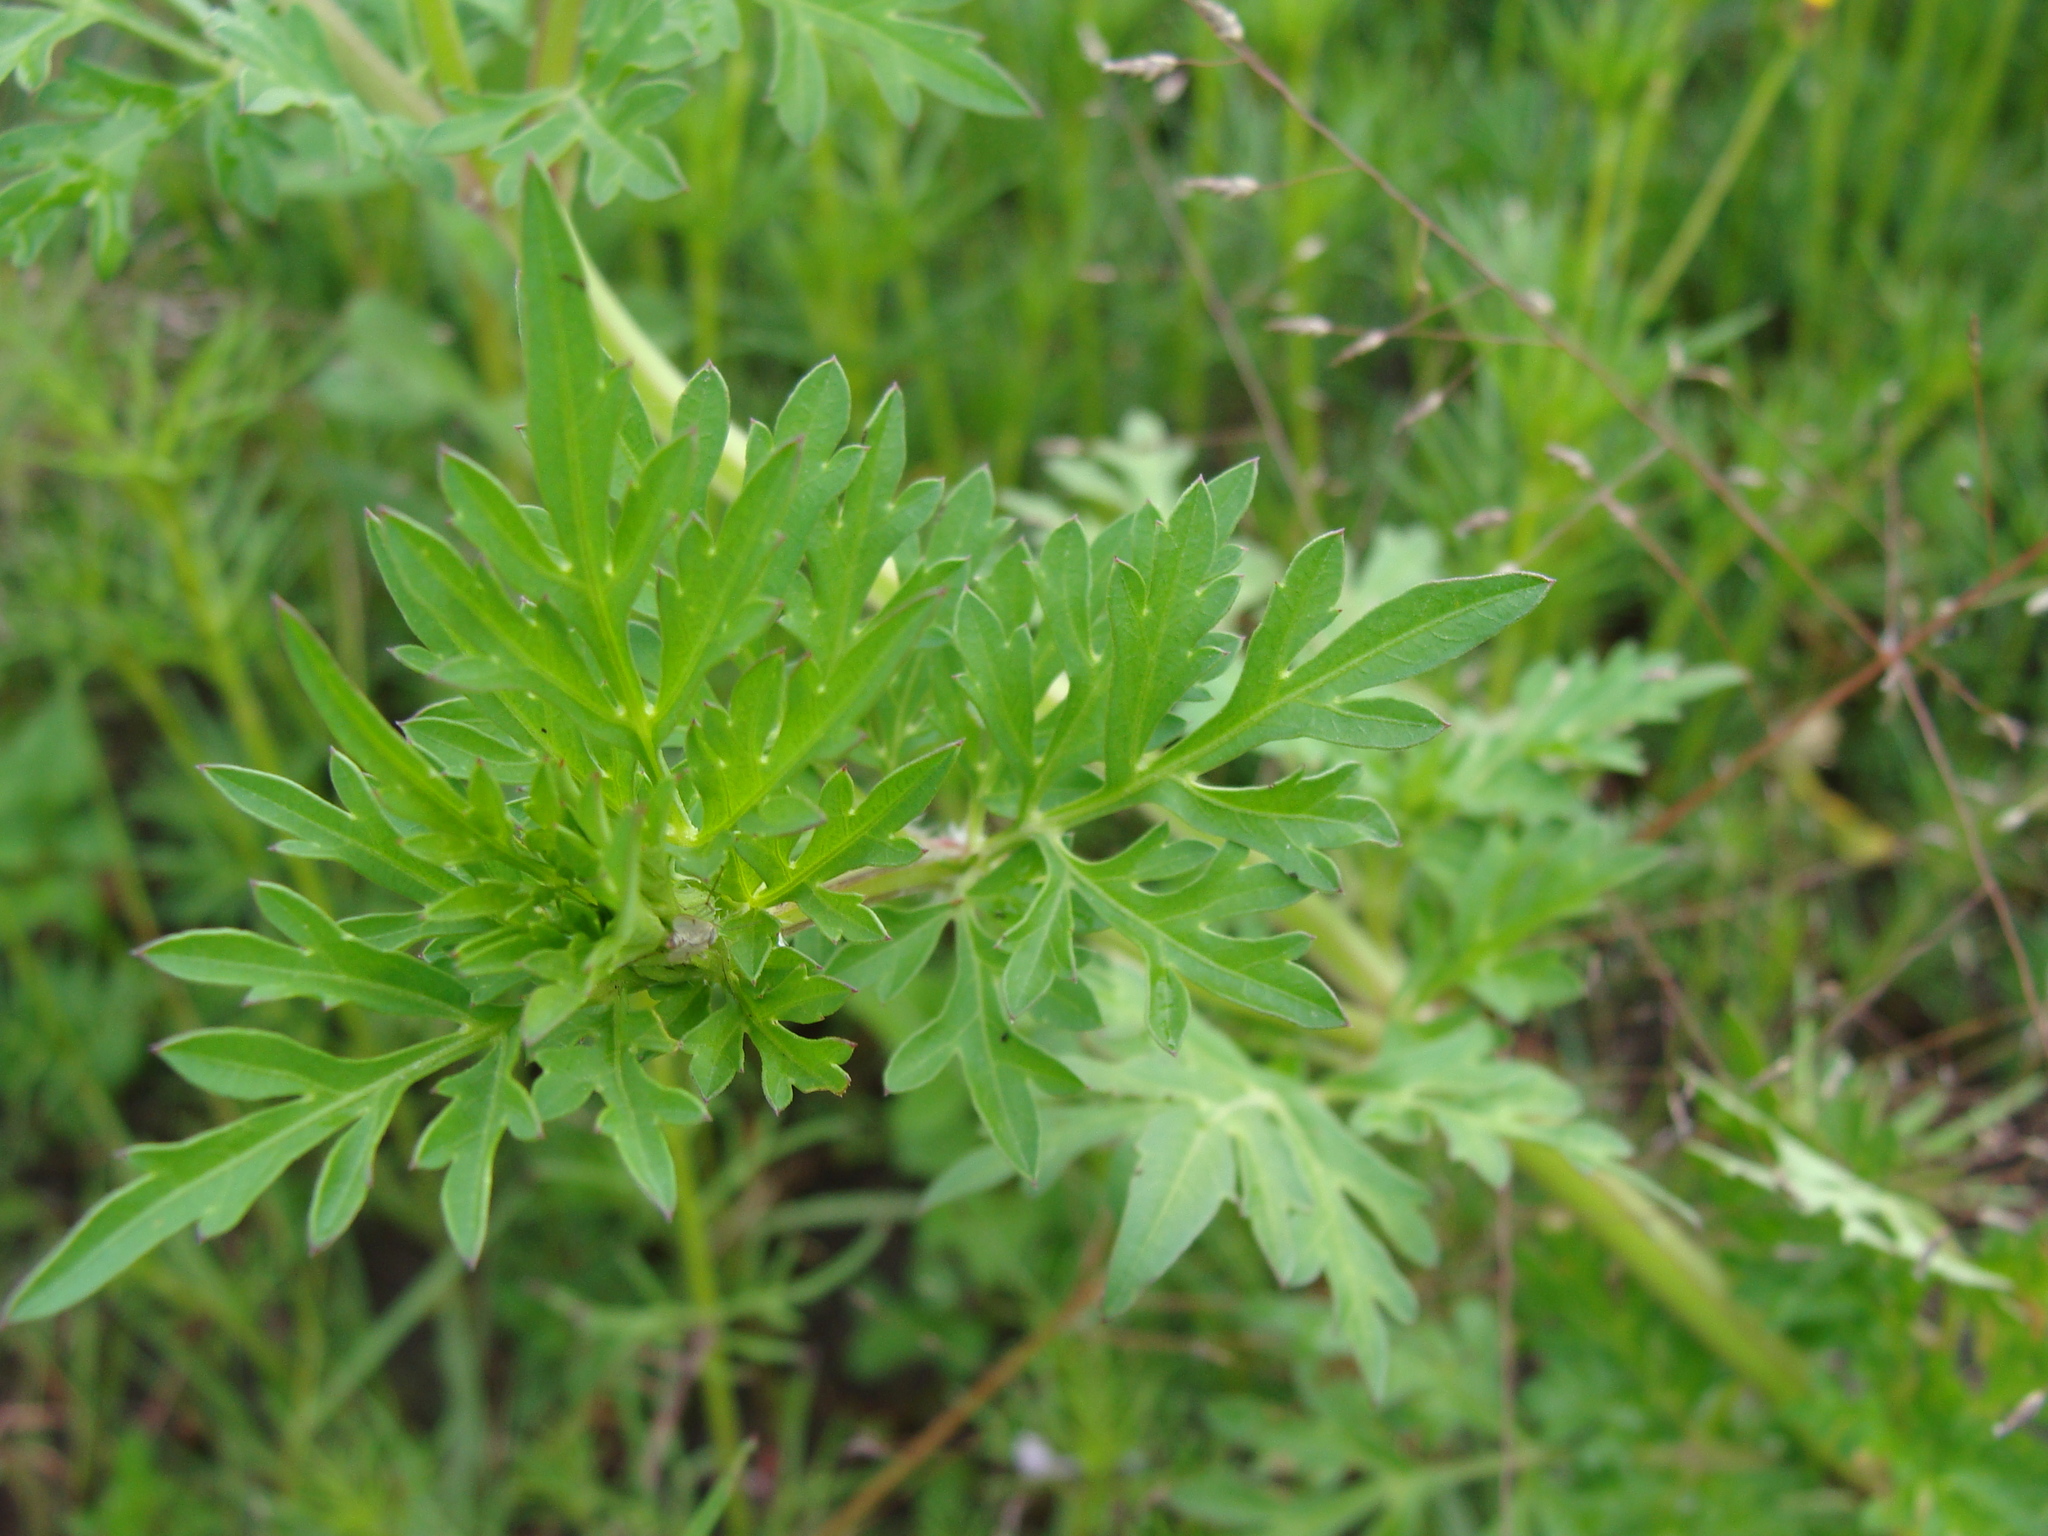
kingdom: Plantae
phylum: Tracheophyta
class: Magnoliopsida
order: Asterales
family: Asteraceae
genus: Bidens
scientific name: Bidens alba
